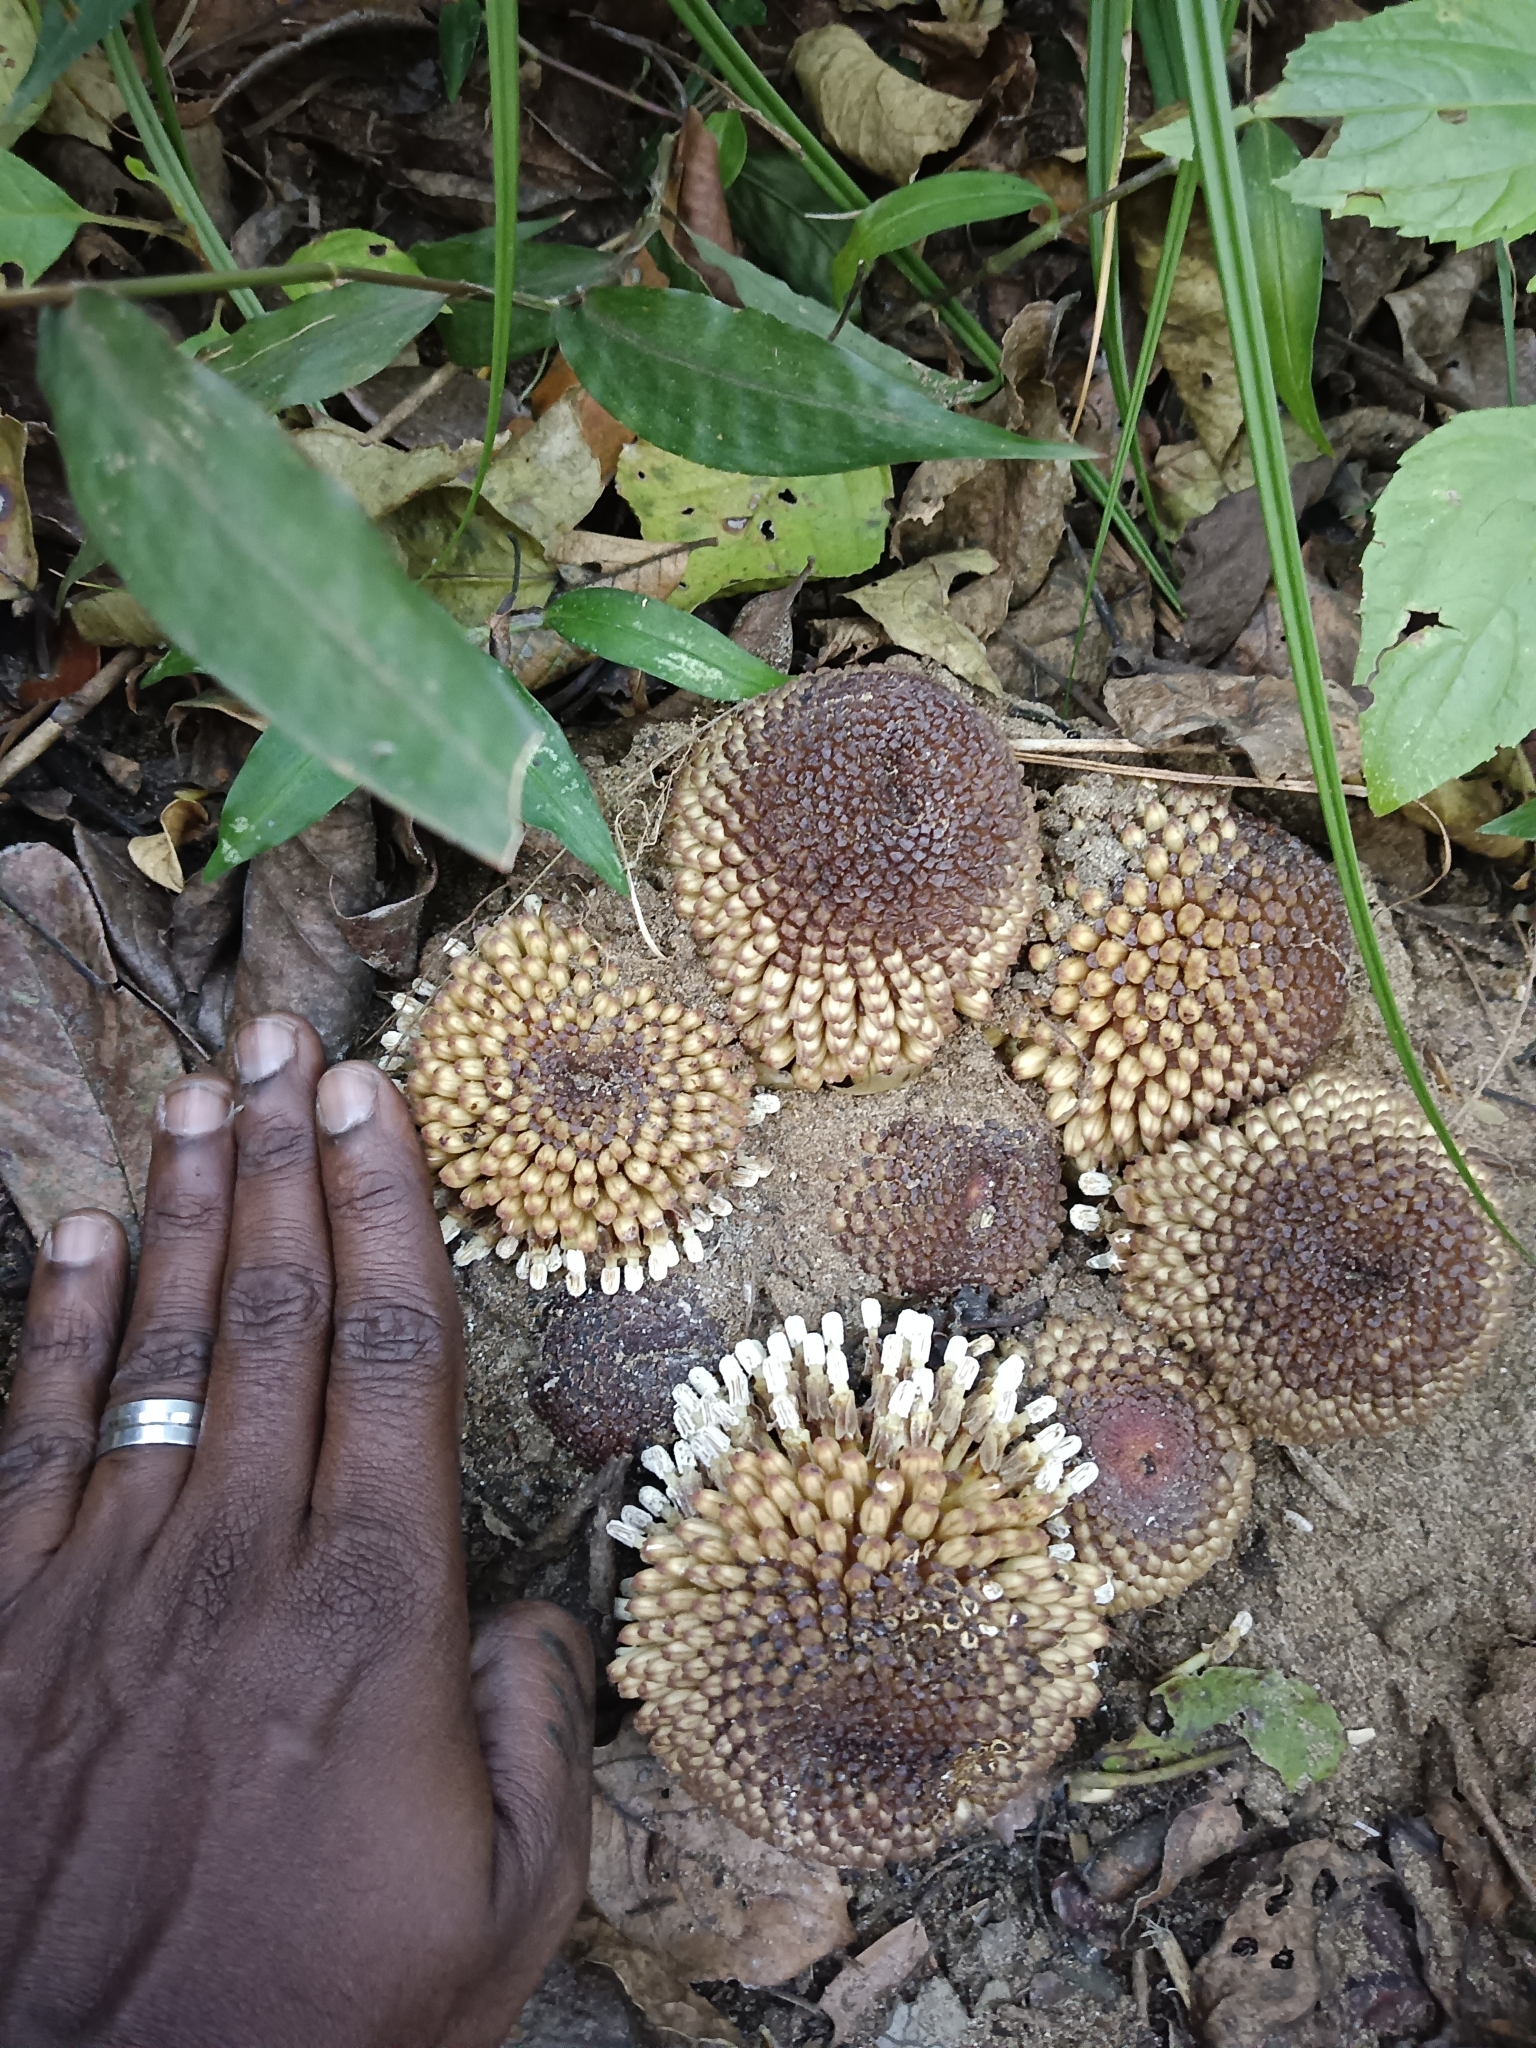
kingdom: Plantae
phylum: Tracheophyta
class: Magnoliopsida
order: Santalales
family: Balanophoraceae
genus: Balanophora
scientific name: Balanophora fungosa
